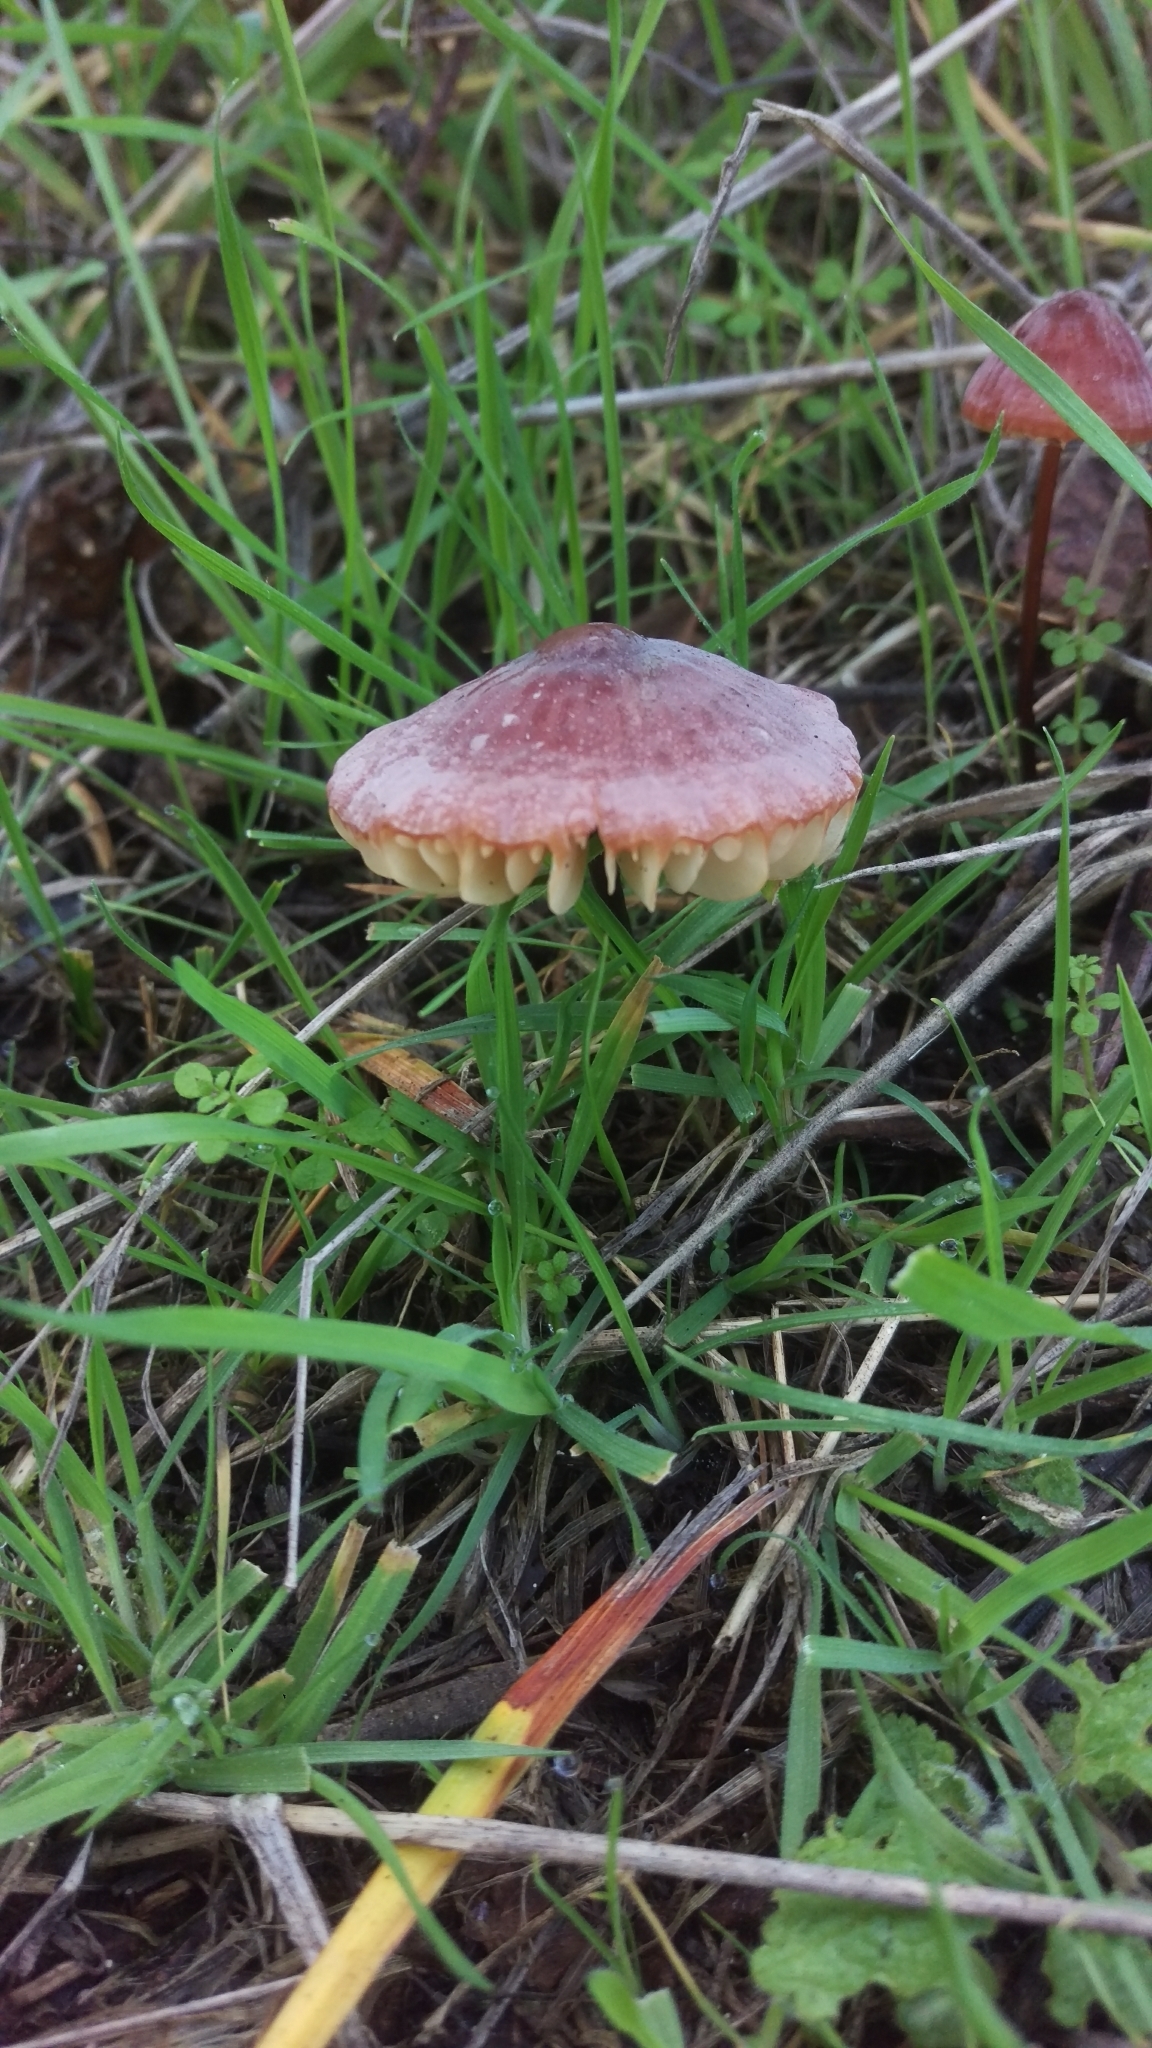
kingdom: Fungi
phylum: Basidiomycota
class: Agaricomycetes
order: Agaricales
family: Marasmiaceae
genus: Marasmius
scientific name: Marasmius plicatulus
